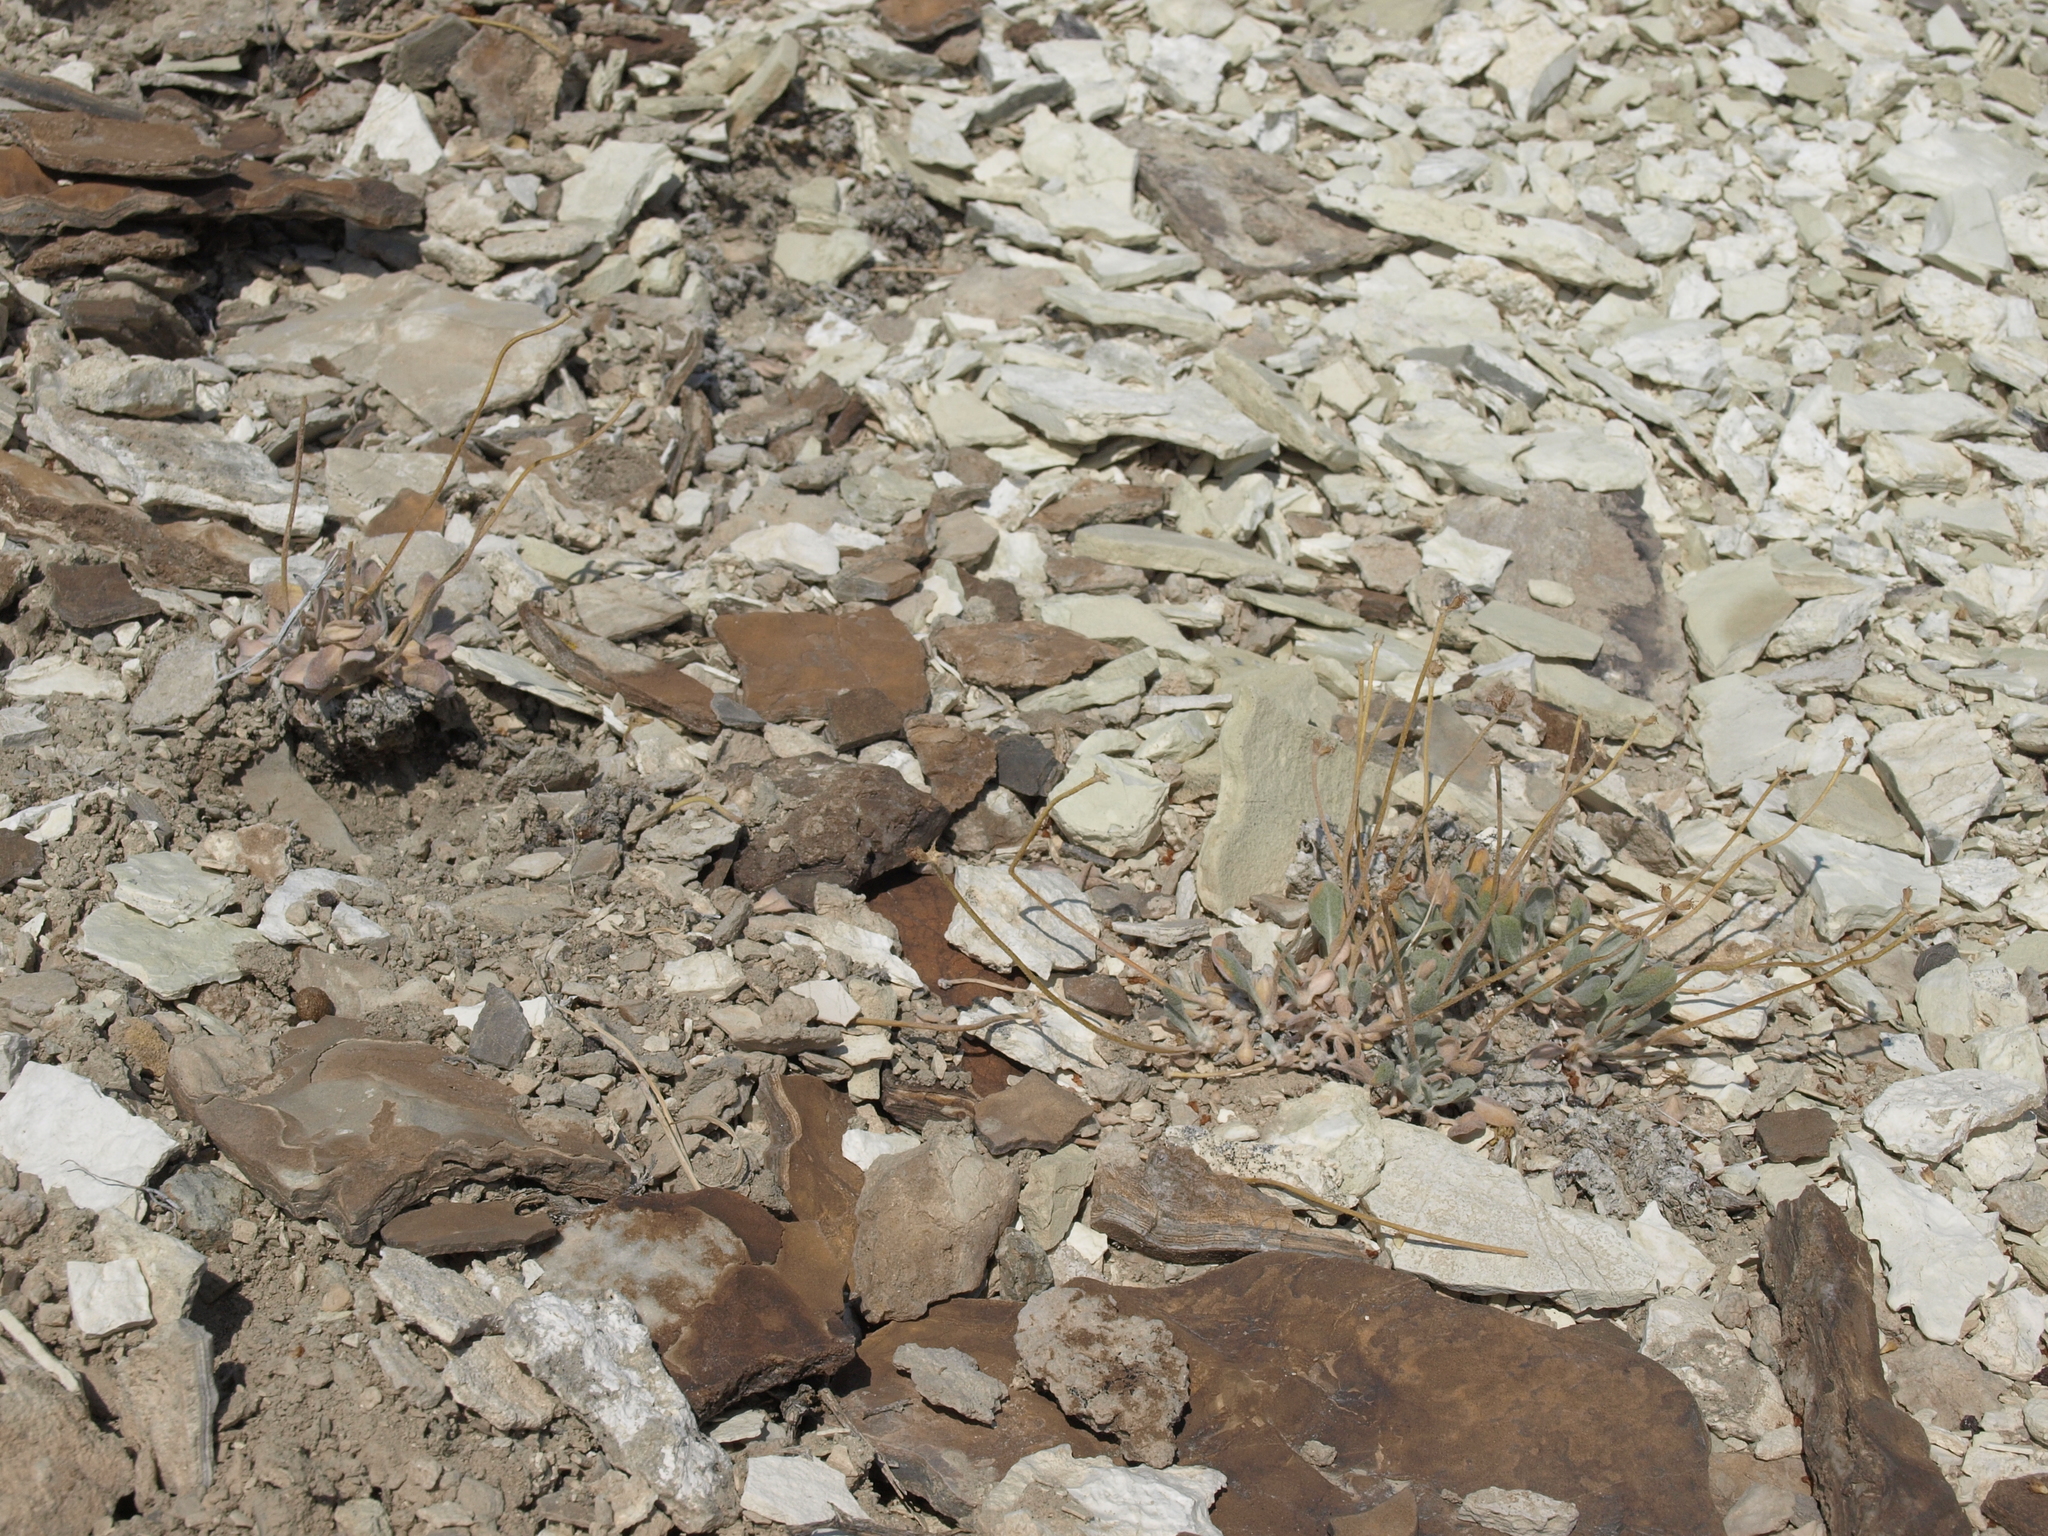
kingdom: Plantae
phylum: Tracheophyta
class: Magnoliopsida
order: Caryophyllales
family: Polygonaceae
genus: Eriogonum
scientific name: Eriogonum tiehmii
